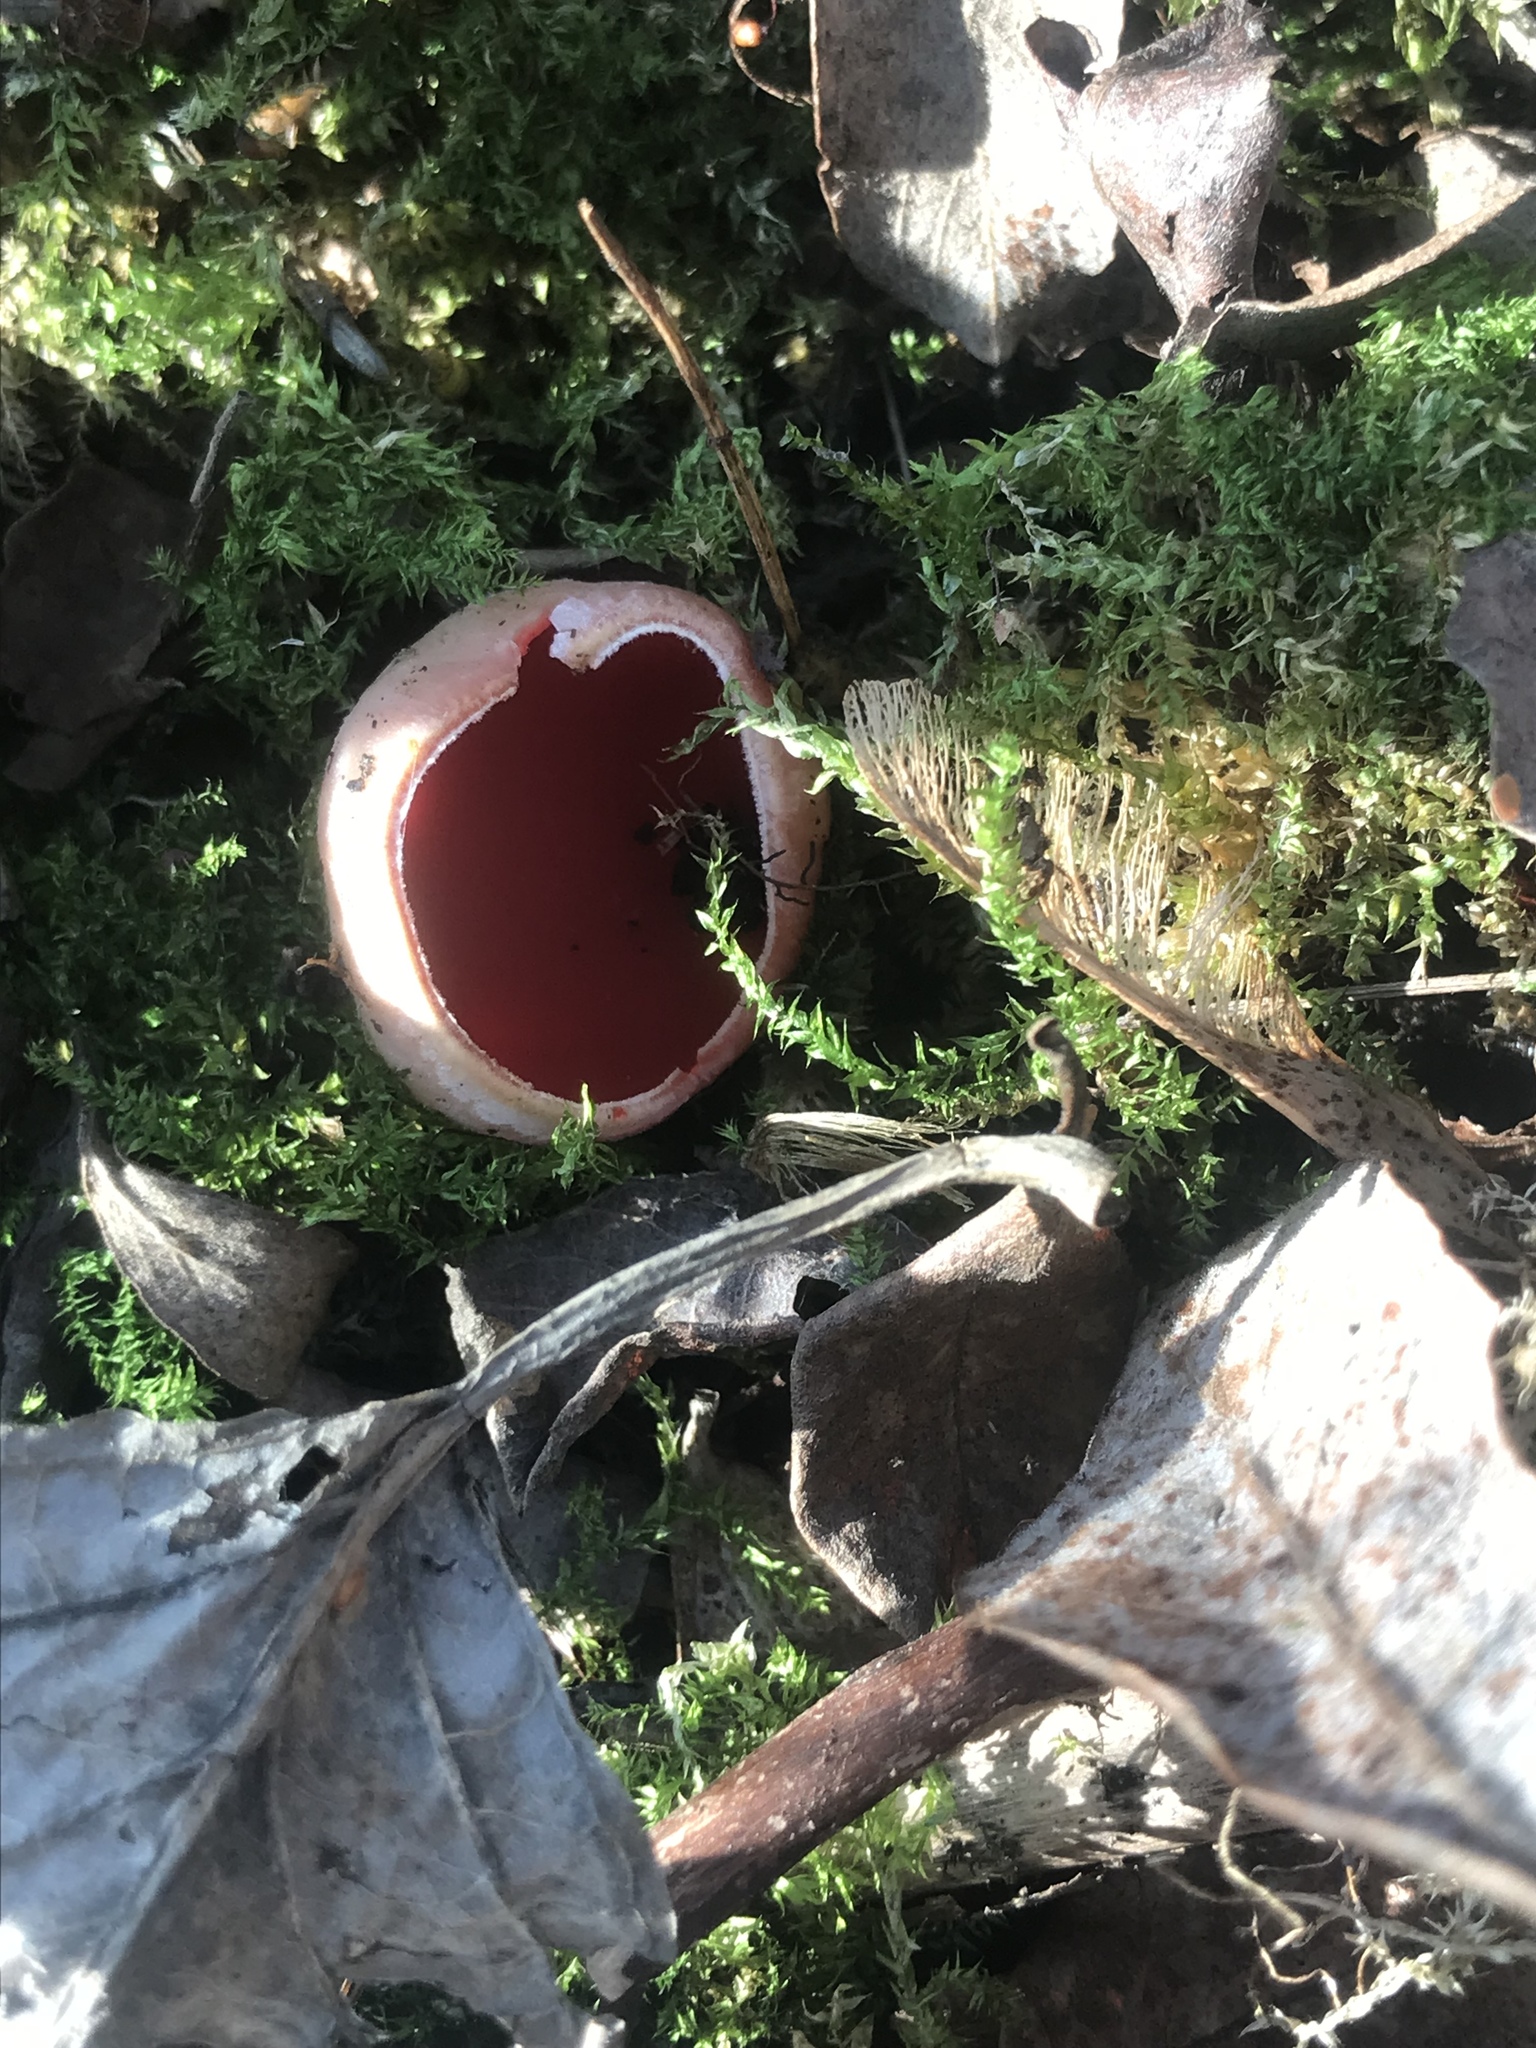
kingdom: Fungi
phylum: Ascomycota
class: Pezizomycetes
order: Pezizales
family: Sarcoscyphaceae
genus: Sarcoscypha
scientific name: Sarcoscypha austriaca
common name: Scarlet elfcup
